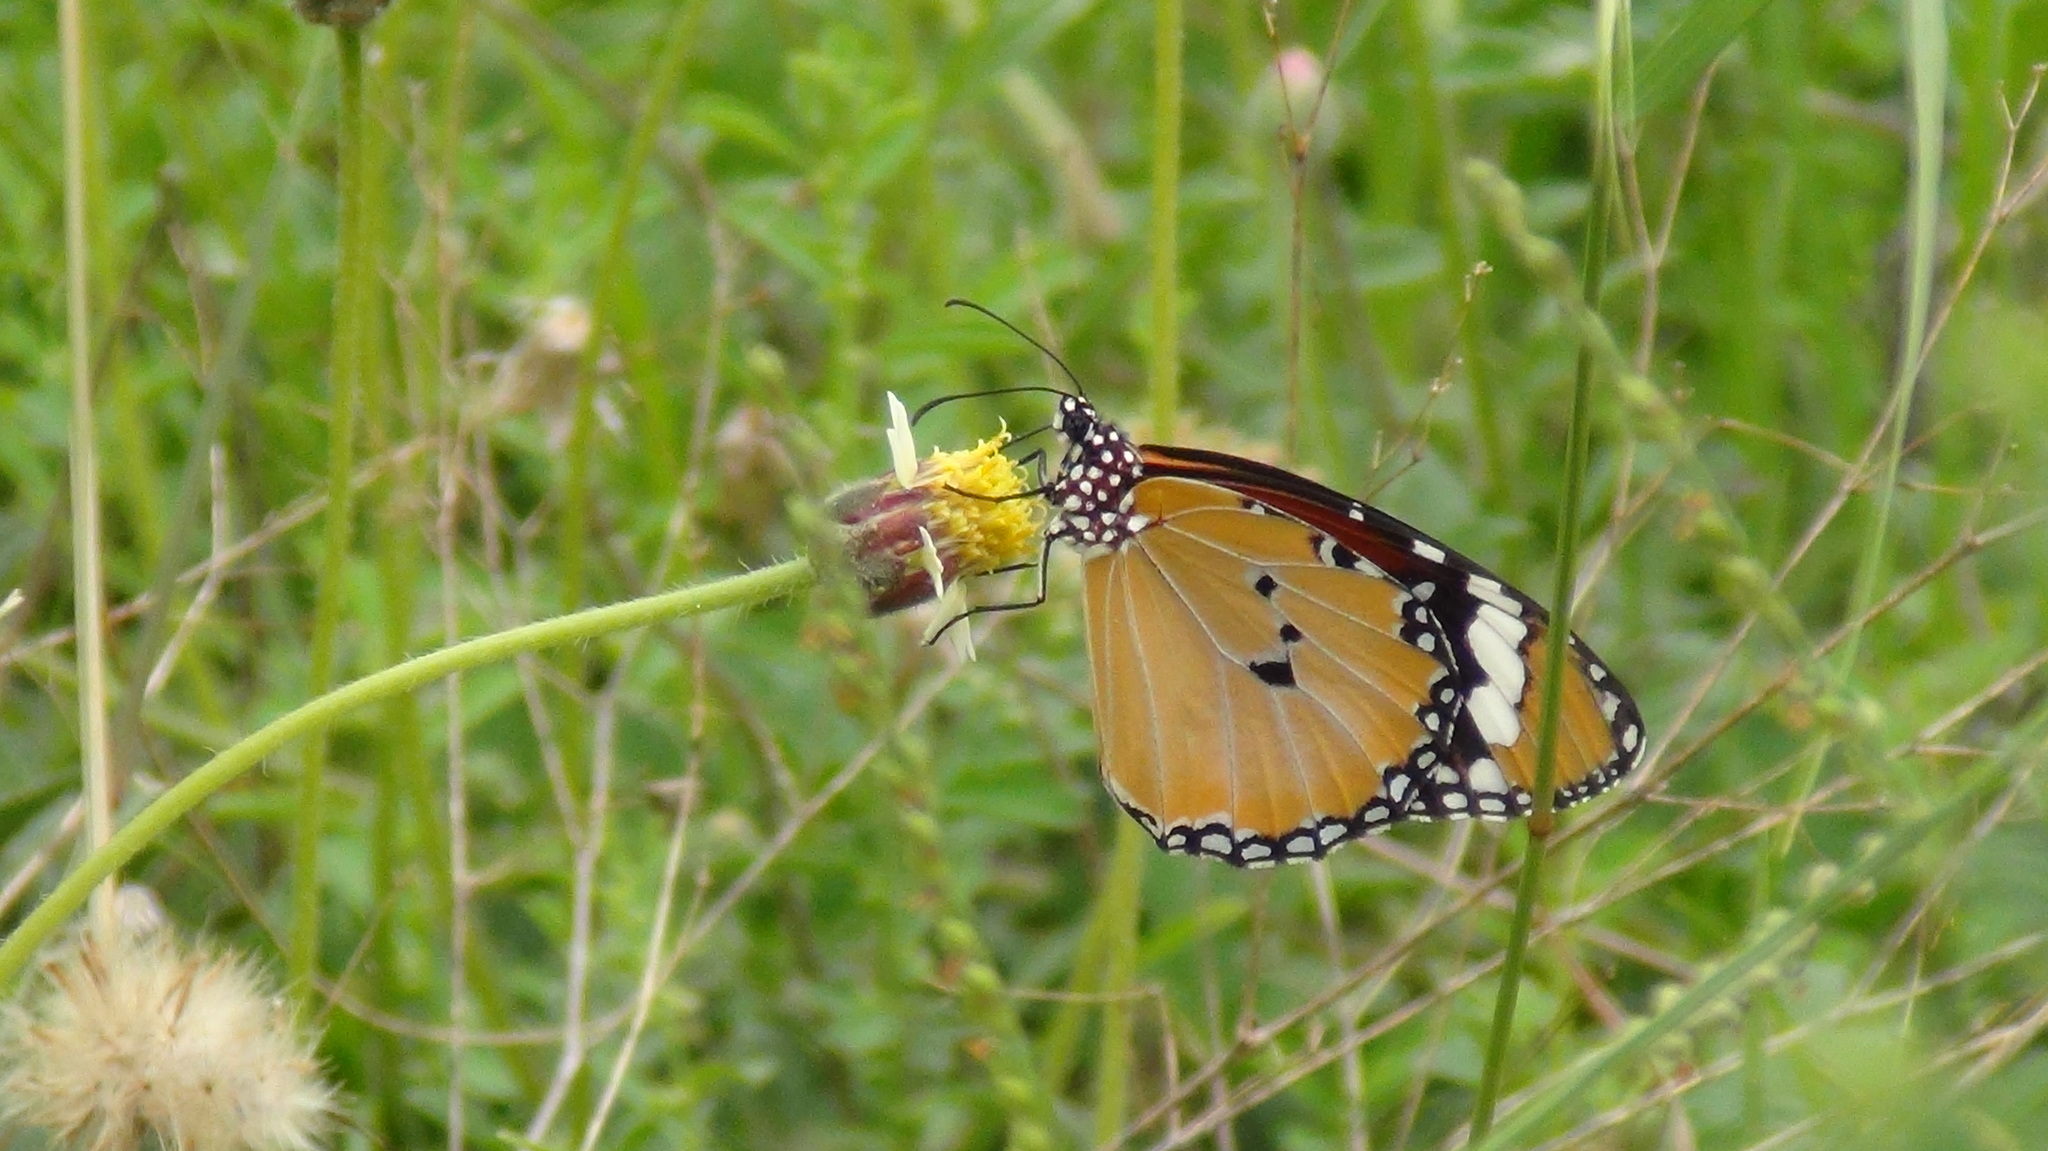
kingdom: Animalia
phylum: Arthropoda
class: Insecta
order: Lepidoptera
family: Nymphalidae
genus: Danaus
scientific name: Danaus chrysippus
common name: Plain tiger
